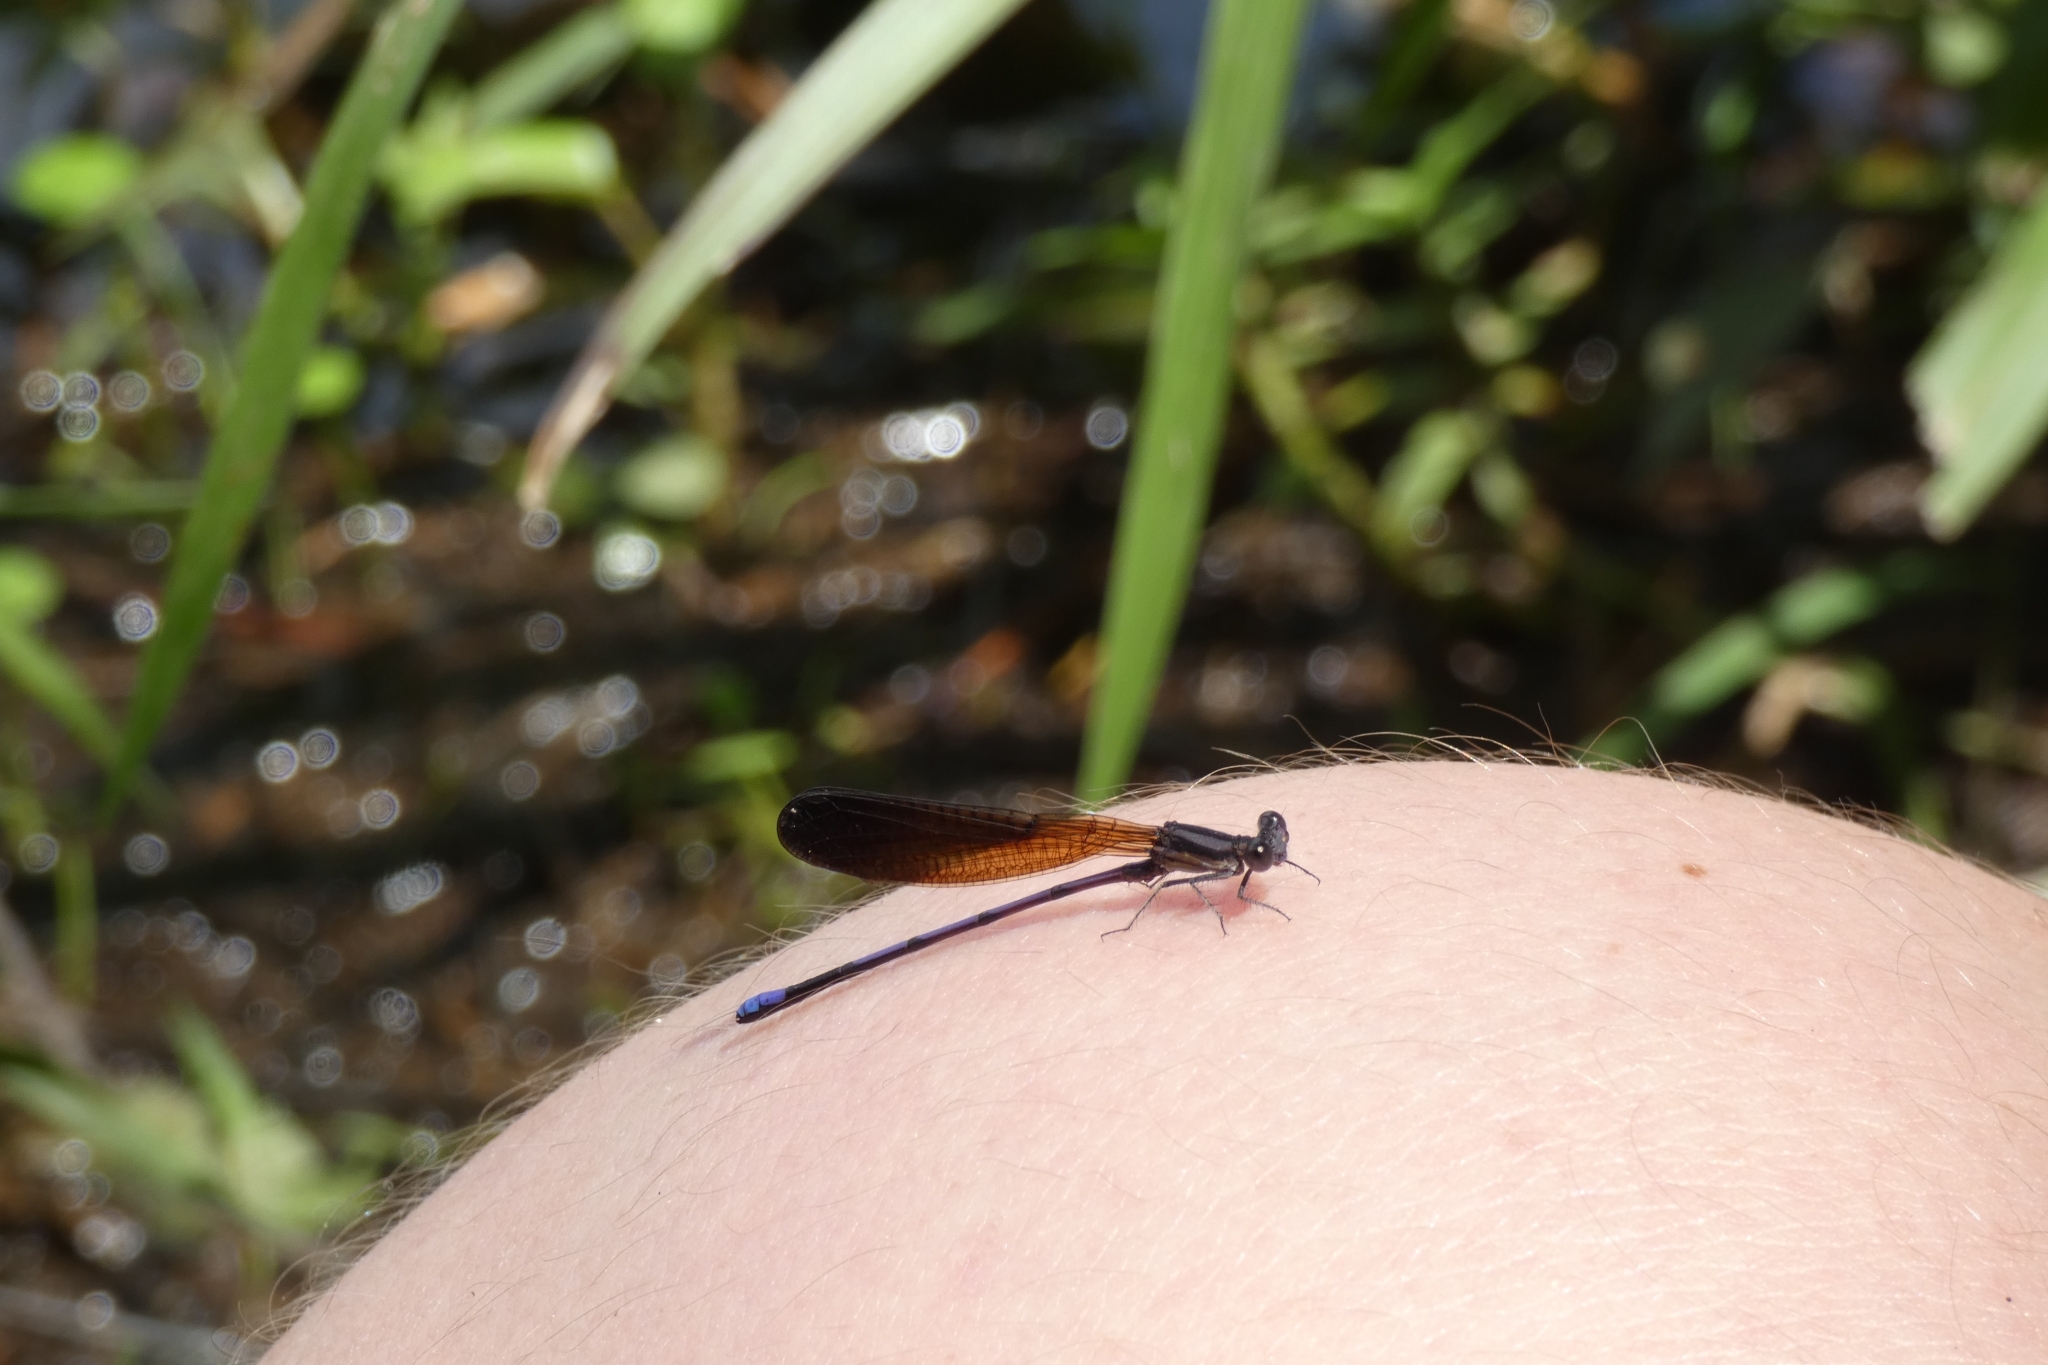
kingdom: Animalia
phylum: Arthropoda
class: Insecta
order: Odonata
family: Coenagrionidae
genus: Argia
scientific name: Argia fumipennis
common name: Variable dancer
